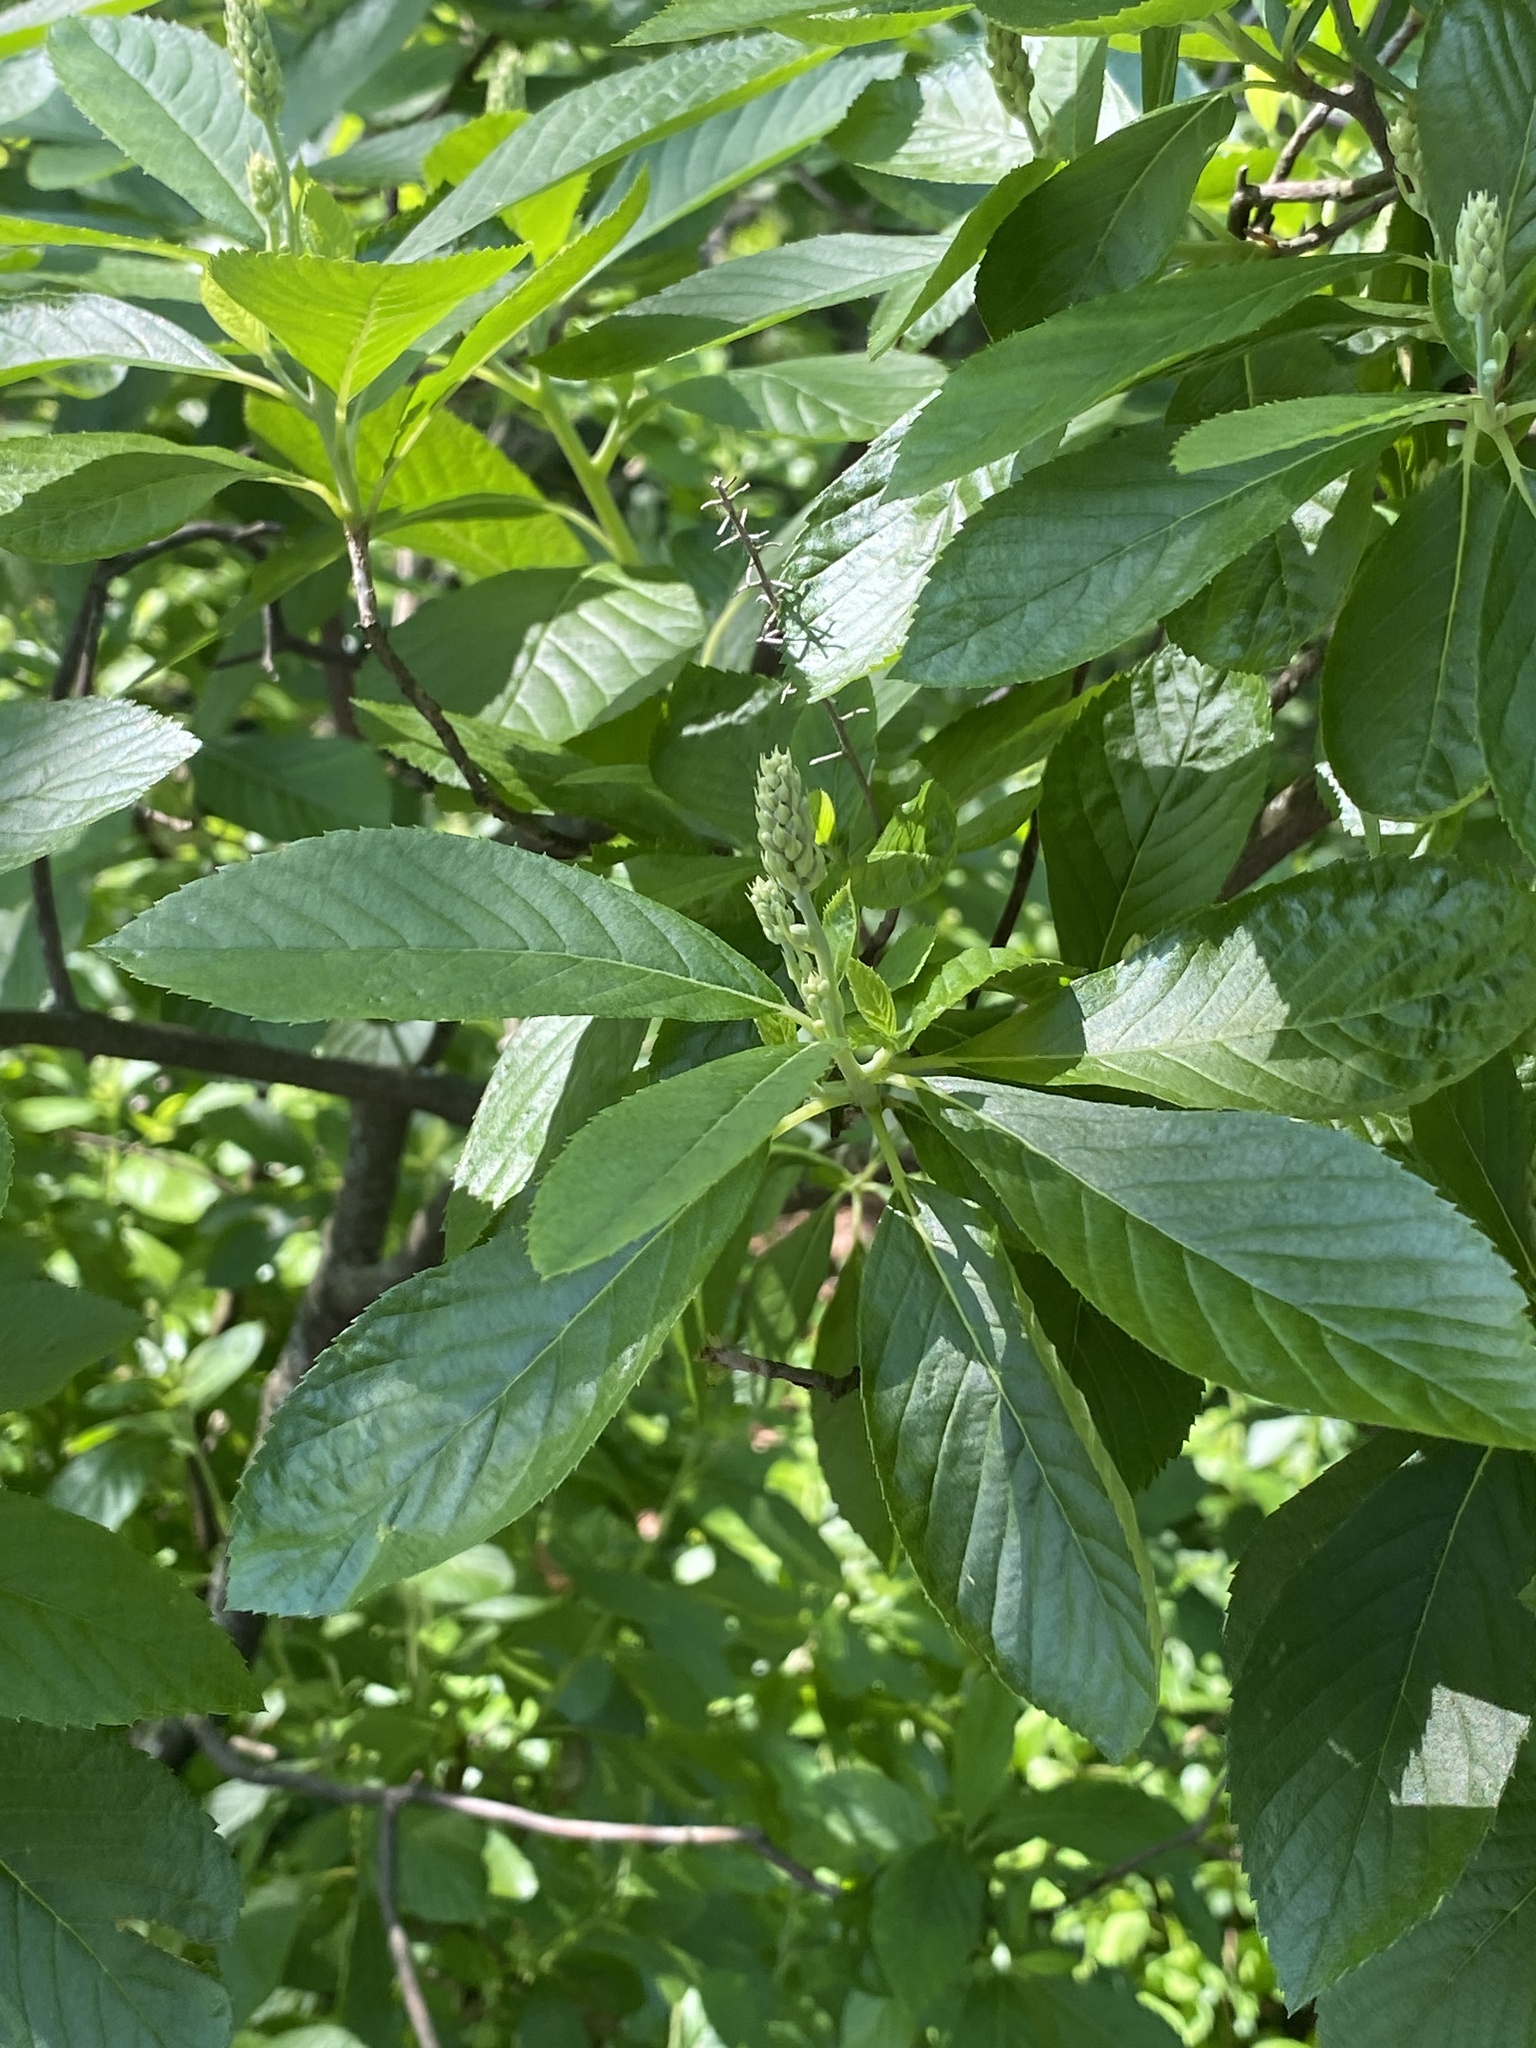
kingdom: Plantae
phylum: Tracheophyta
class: Magnoliopsida
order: Ericales
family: Clethraceae
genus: Clethra
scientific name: Clethra alnifolia
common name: Sweet pepperbush
